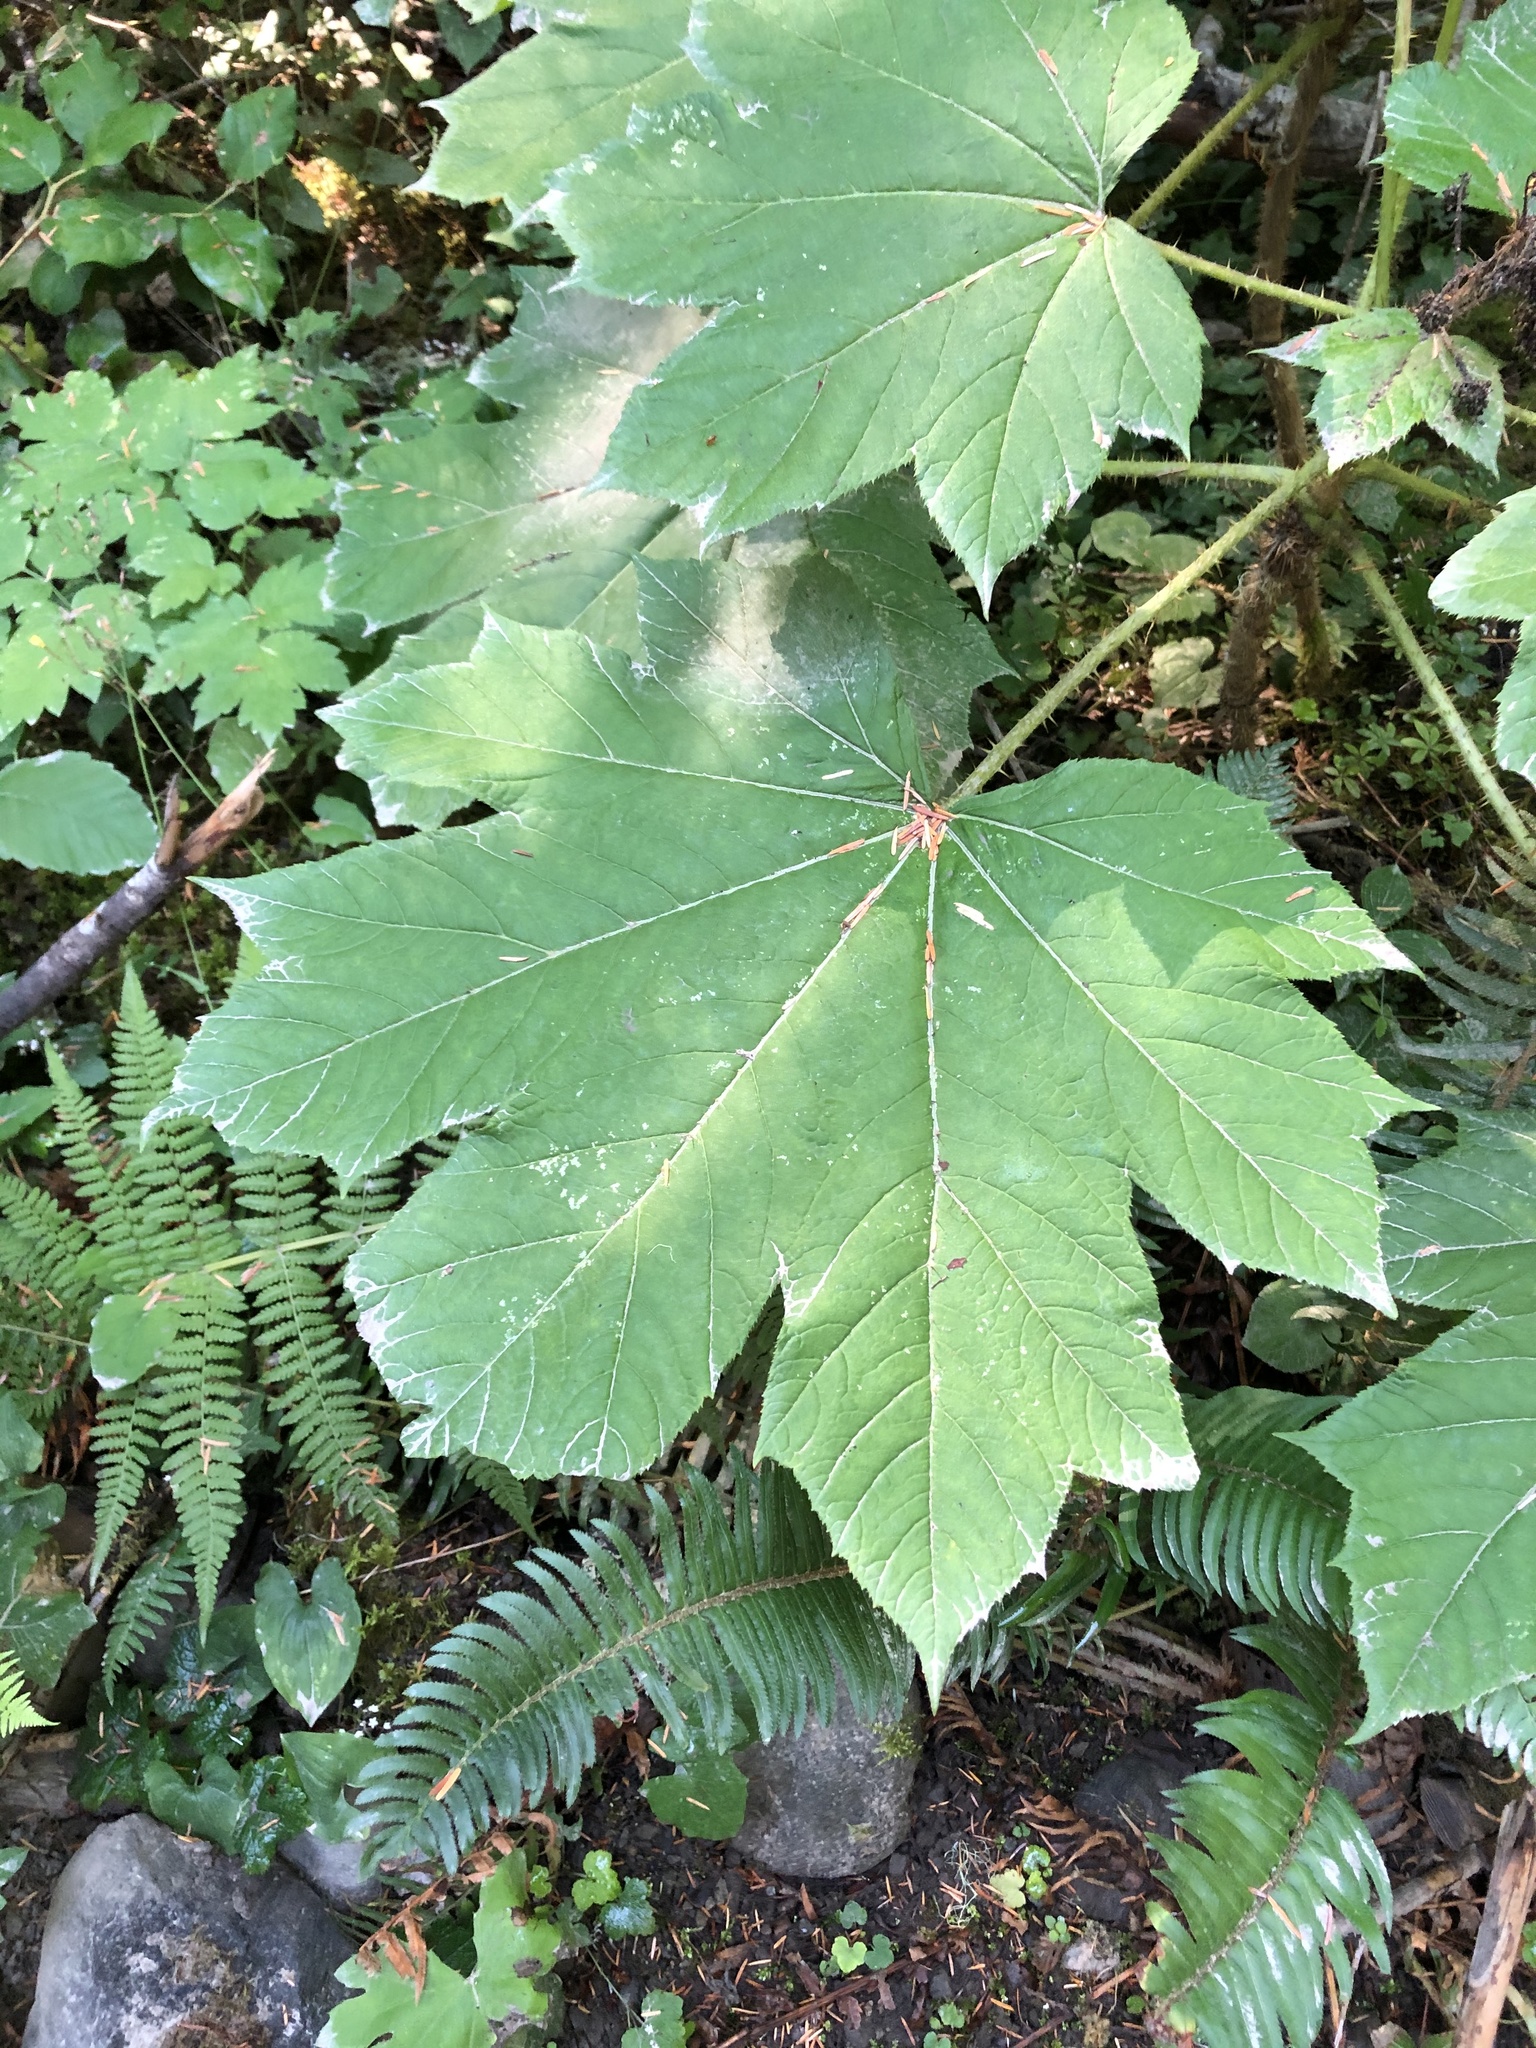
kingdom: Plantae
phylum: Tracheophyta
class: Magnoliopsida
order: Apiales
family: Araliaceae
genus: Oplopanax
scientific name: Oplopanax horridus
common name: Devil's walking-stick
